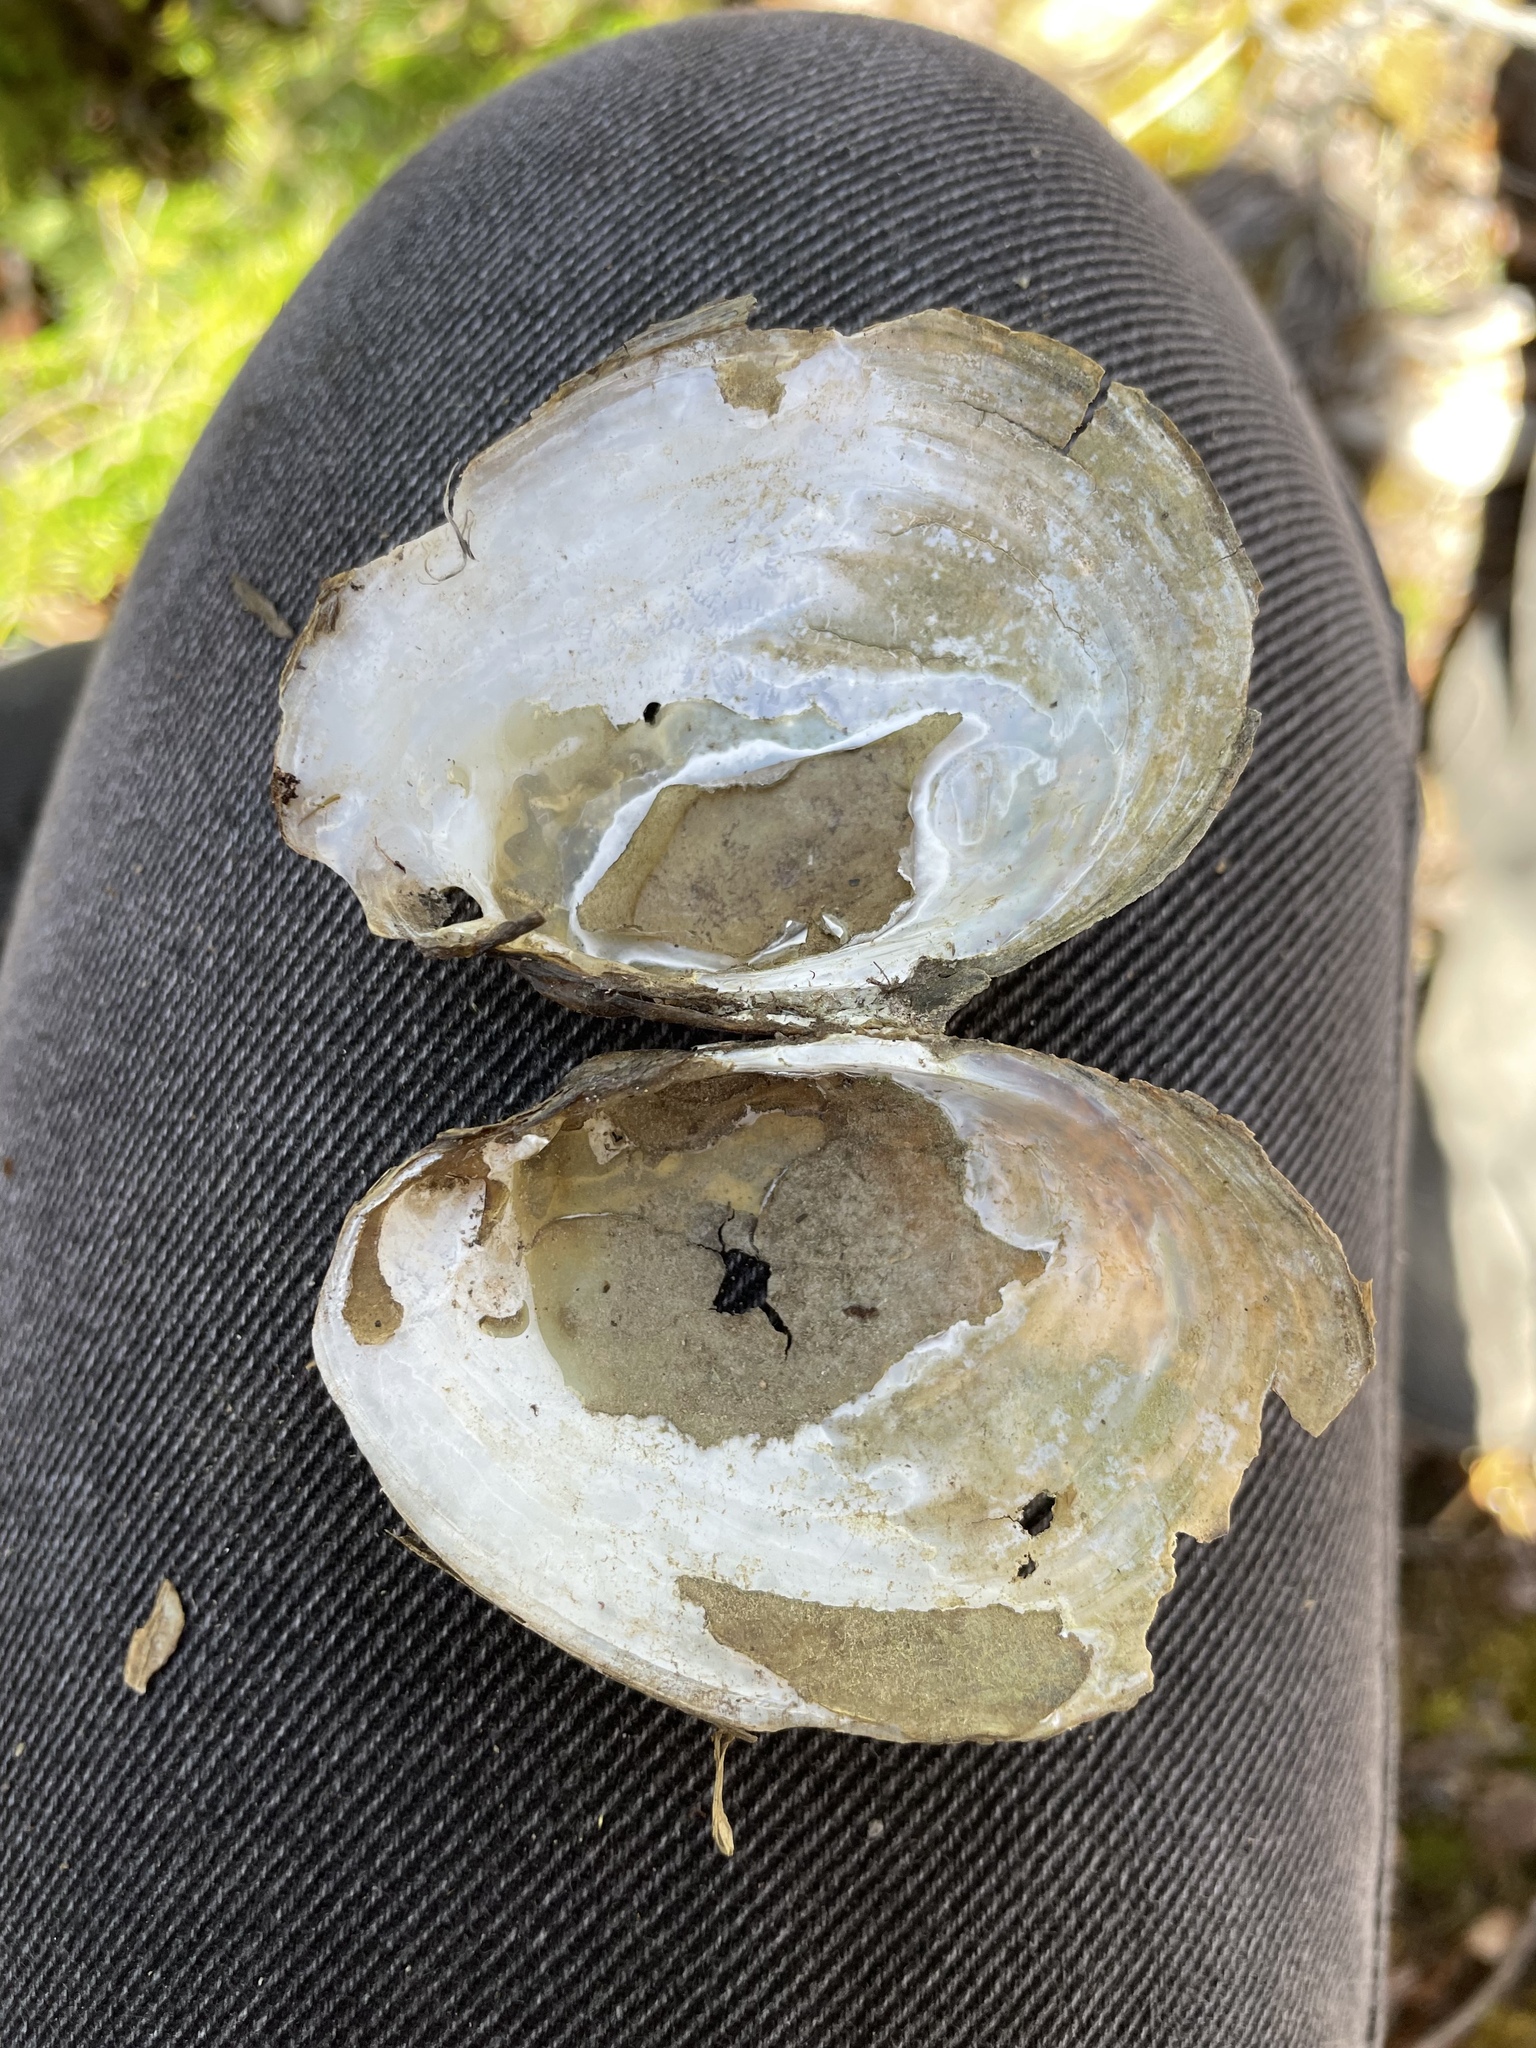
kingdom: Animalia
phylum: Mollusca
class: Bivalvia
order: Unionida
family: Unionidae
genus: Lampsilis
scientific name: Lampsilis cariosa
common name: Yellow lampmussel
